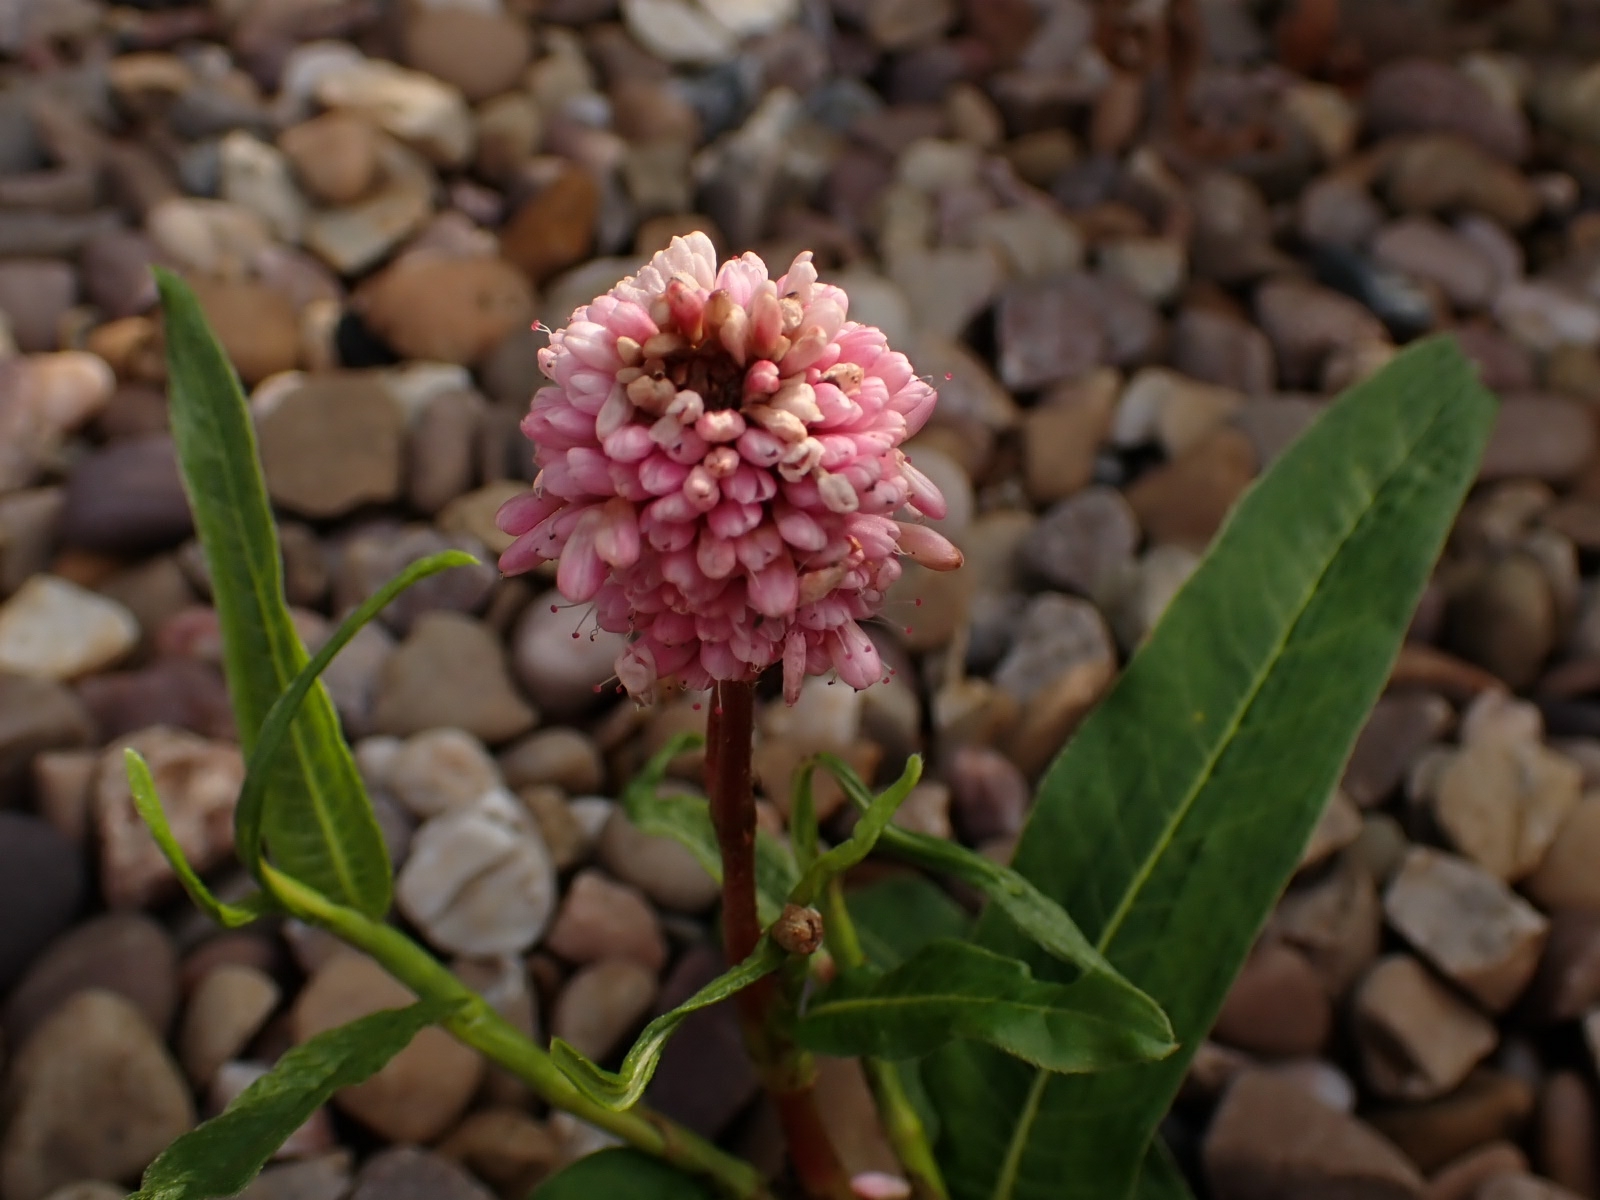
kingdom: Plantae
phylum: Tracheophyta
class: Magnoliopsida
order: Caryophyllales
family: Polygonaceae
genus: Persicaria
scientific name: Persicaria amphibia
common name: Amphibious bistort
